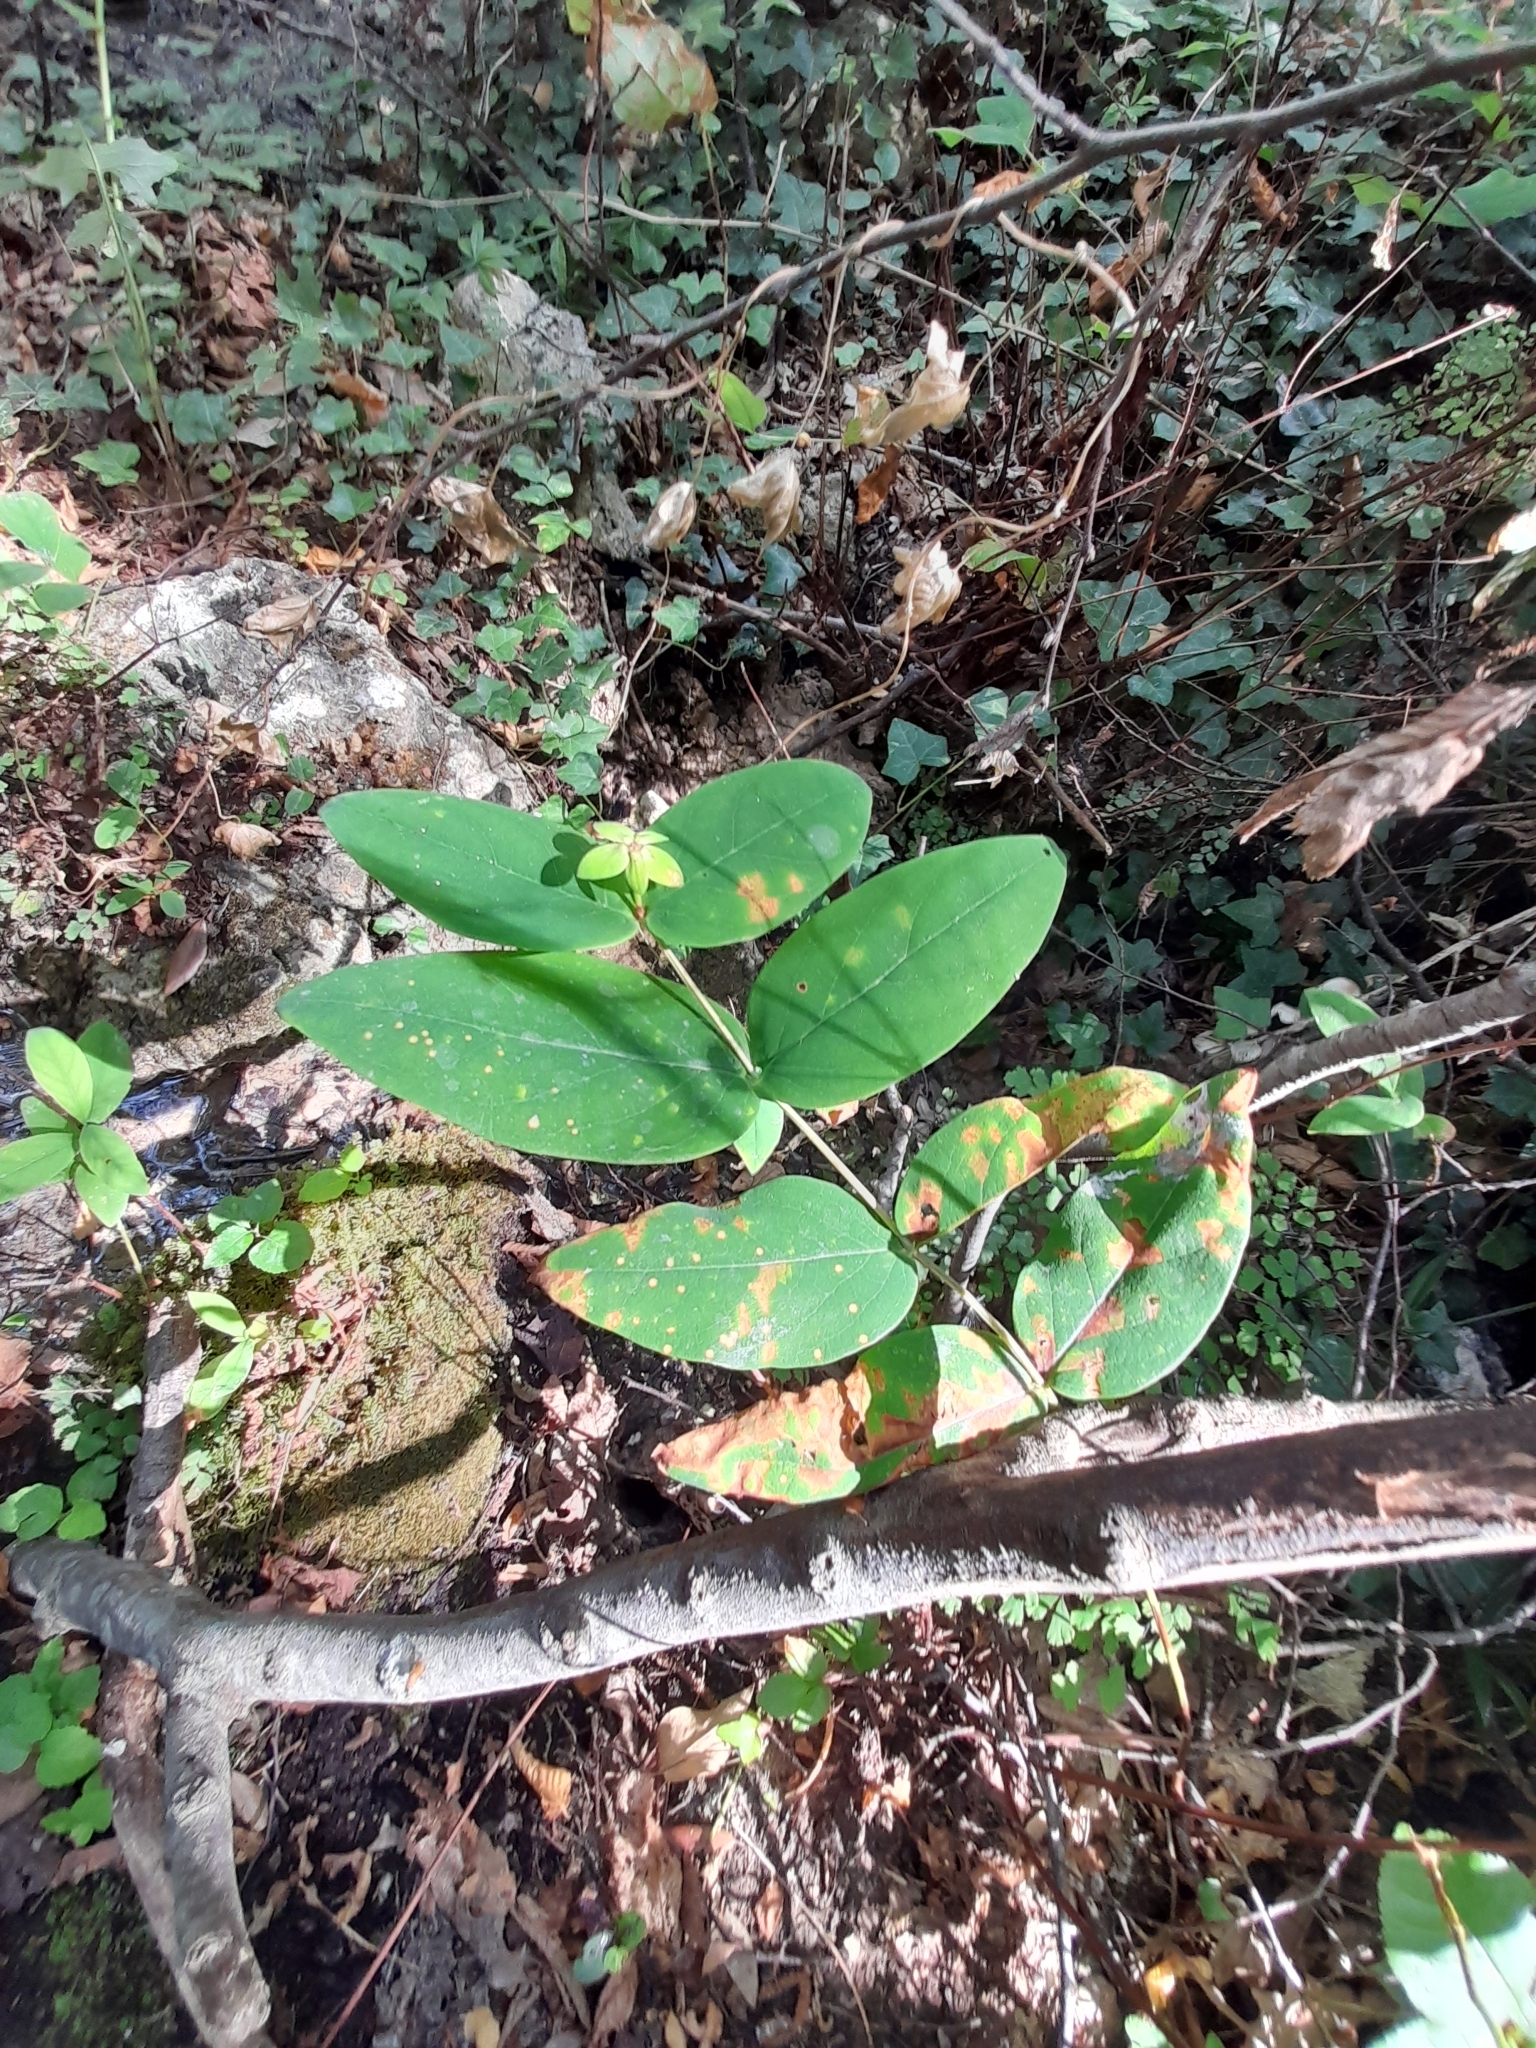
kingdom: Plantae
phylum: Tracheophyta
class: Magnoliopsida
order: Malpighiales
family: Hypericaceae
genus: Hypericum
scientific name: Hypericum androsaemum
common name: Sweet-amber
